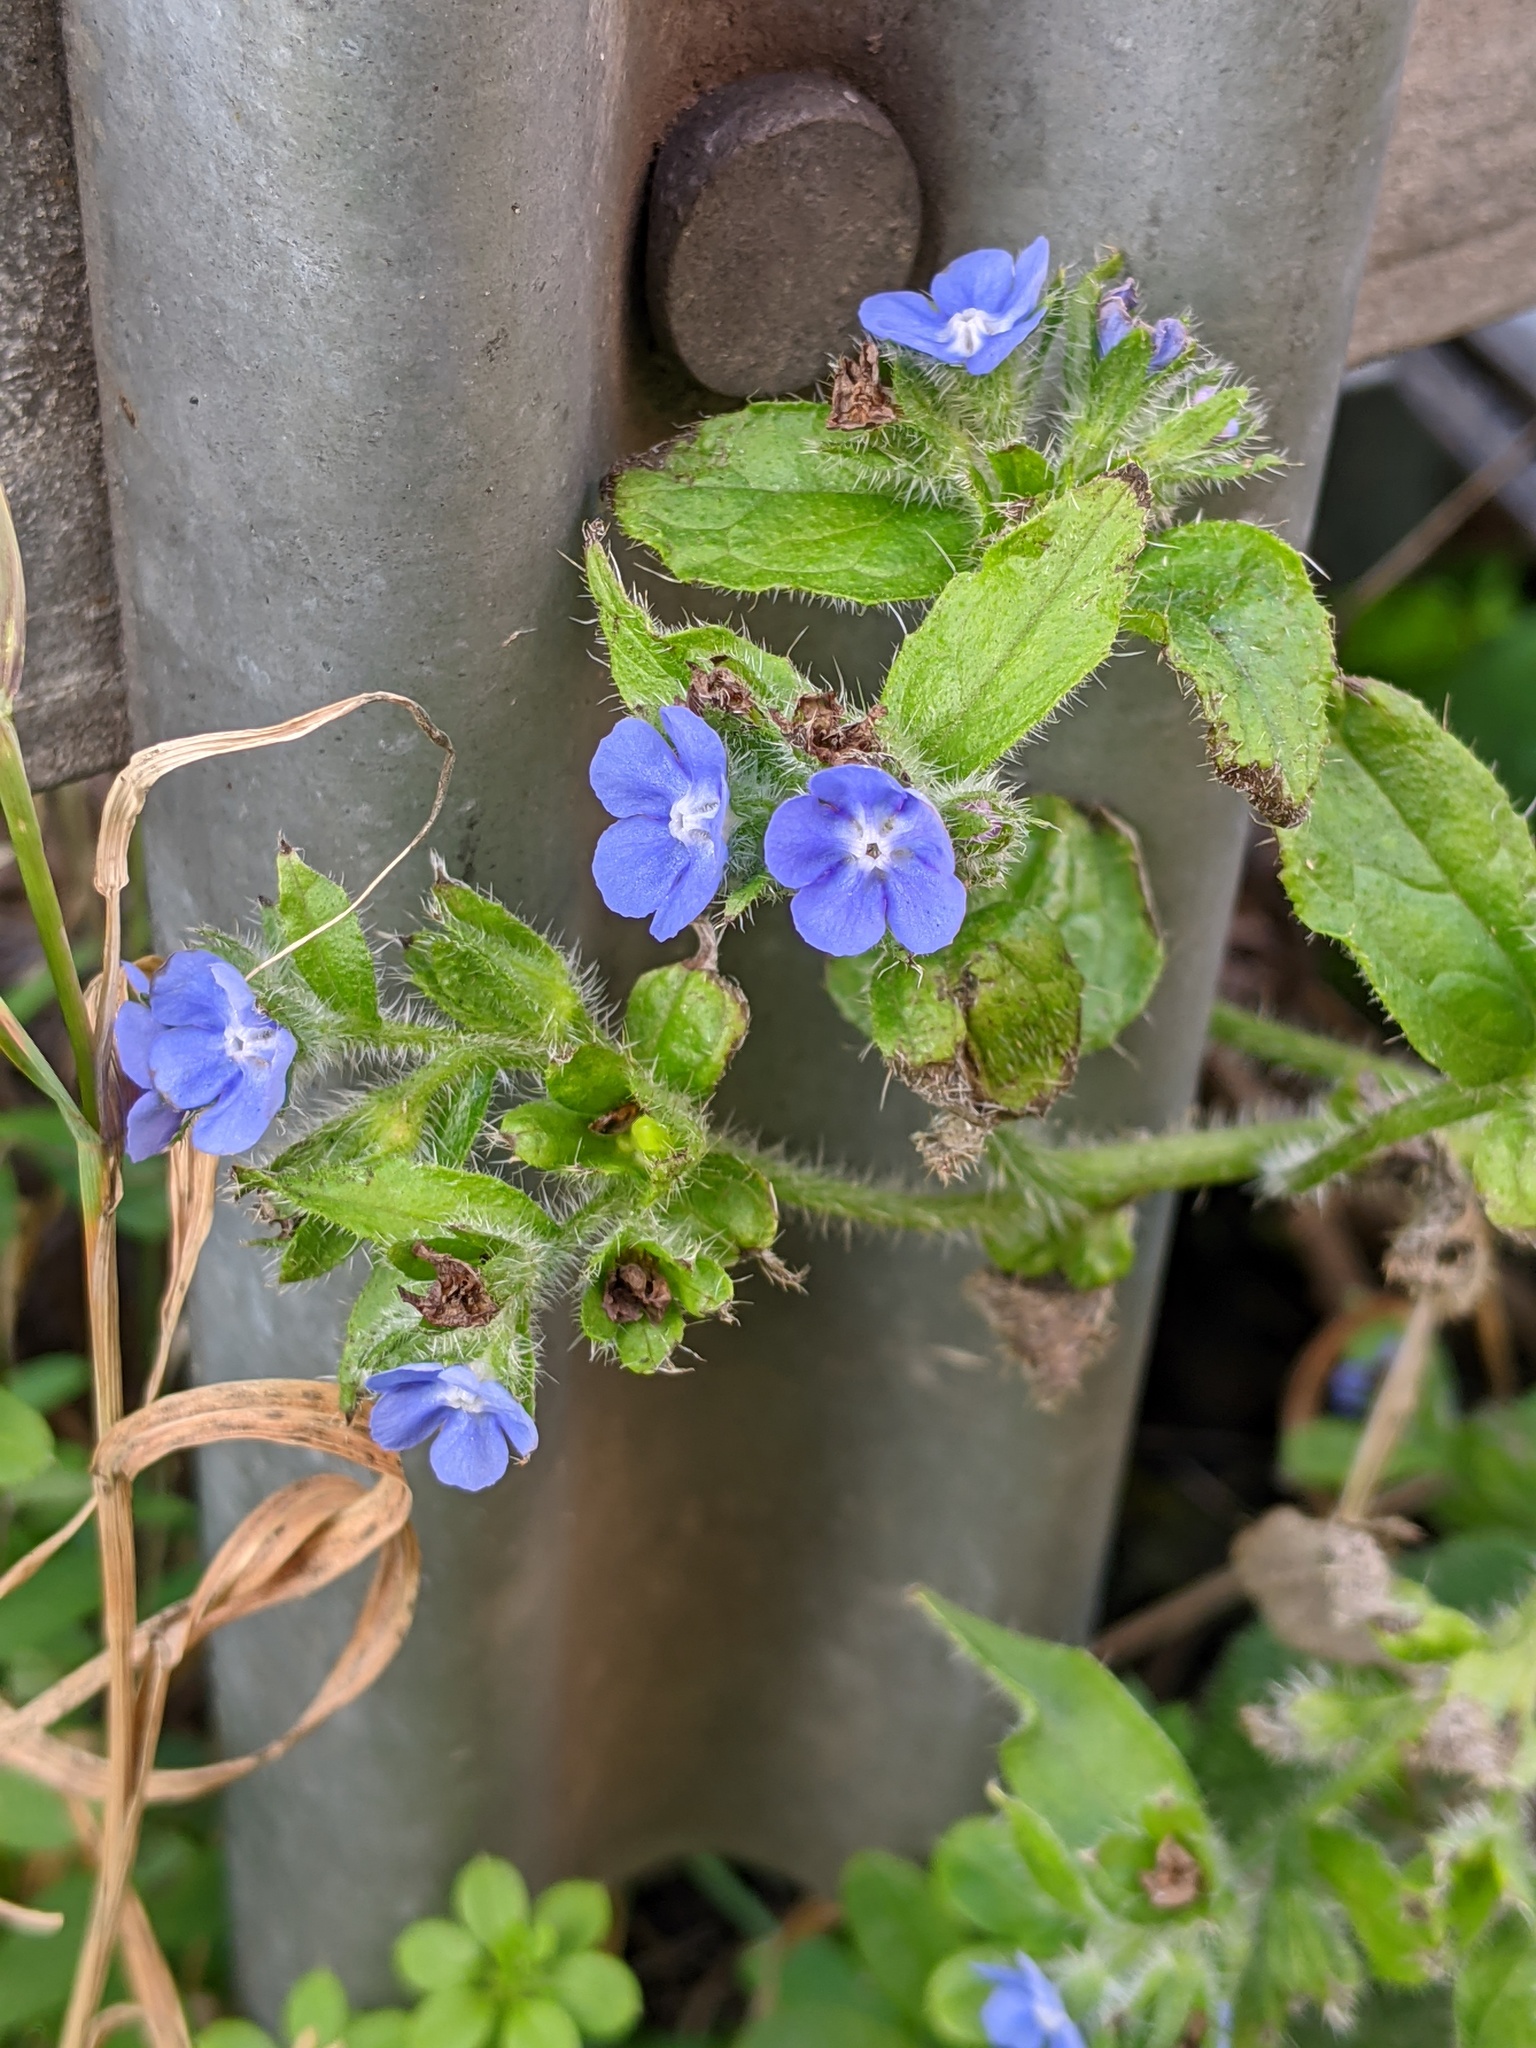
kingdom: Plantae
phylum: Tracheophyta
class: Magnoliopsida
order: Boraginales
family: Boraginaceae
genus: Pentaglottis
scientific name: Pentaglottis sempervirens
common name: Green alkanet
